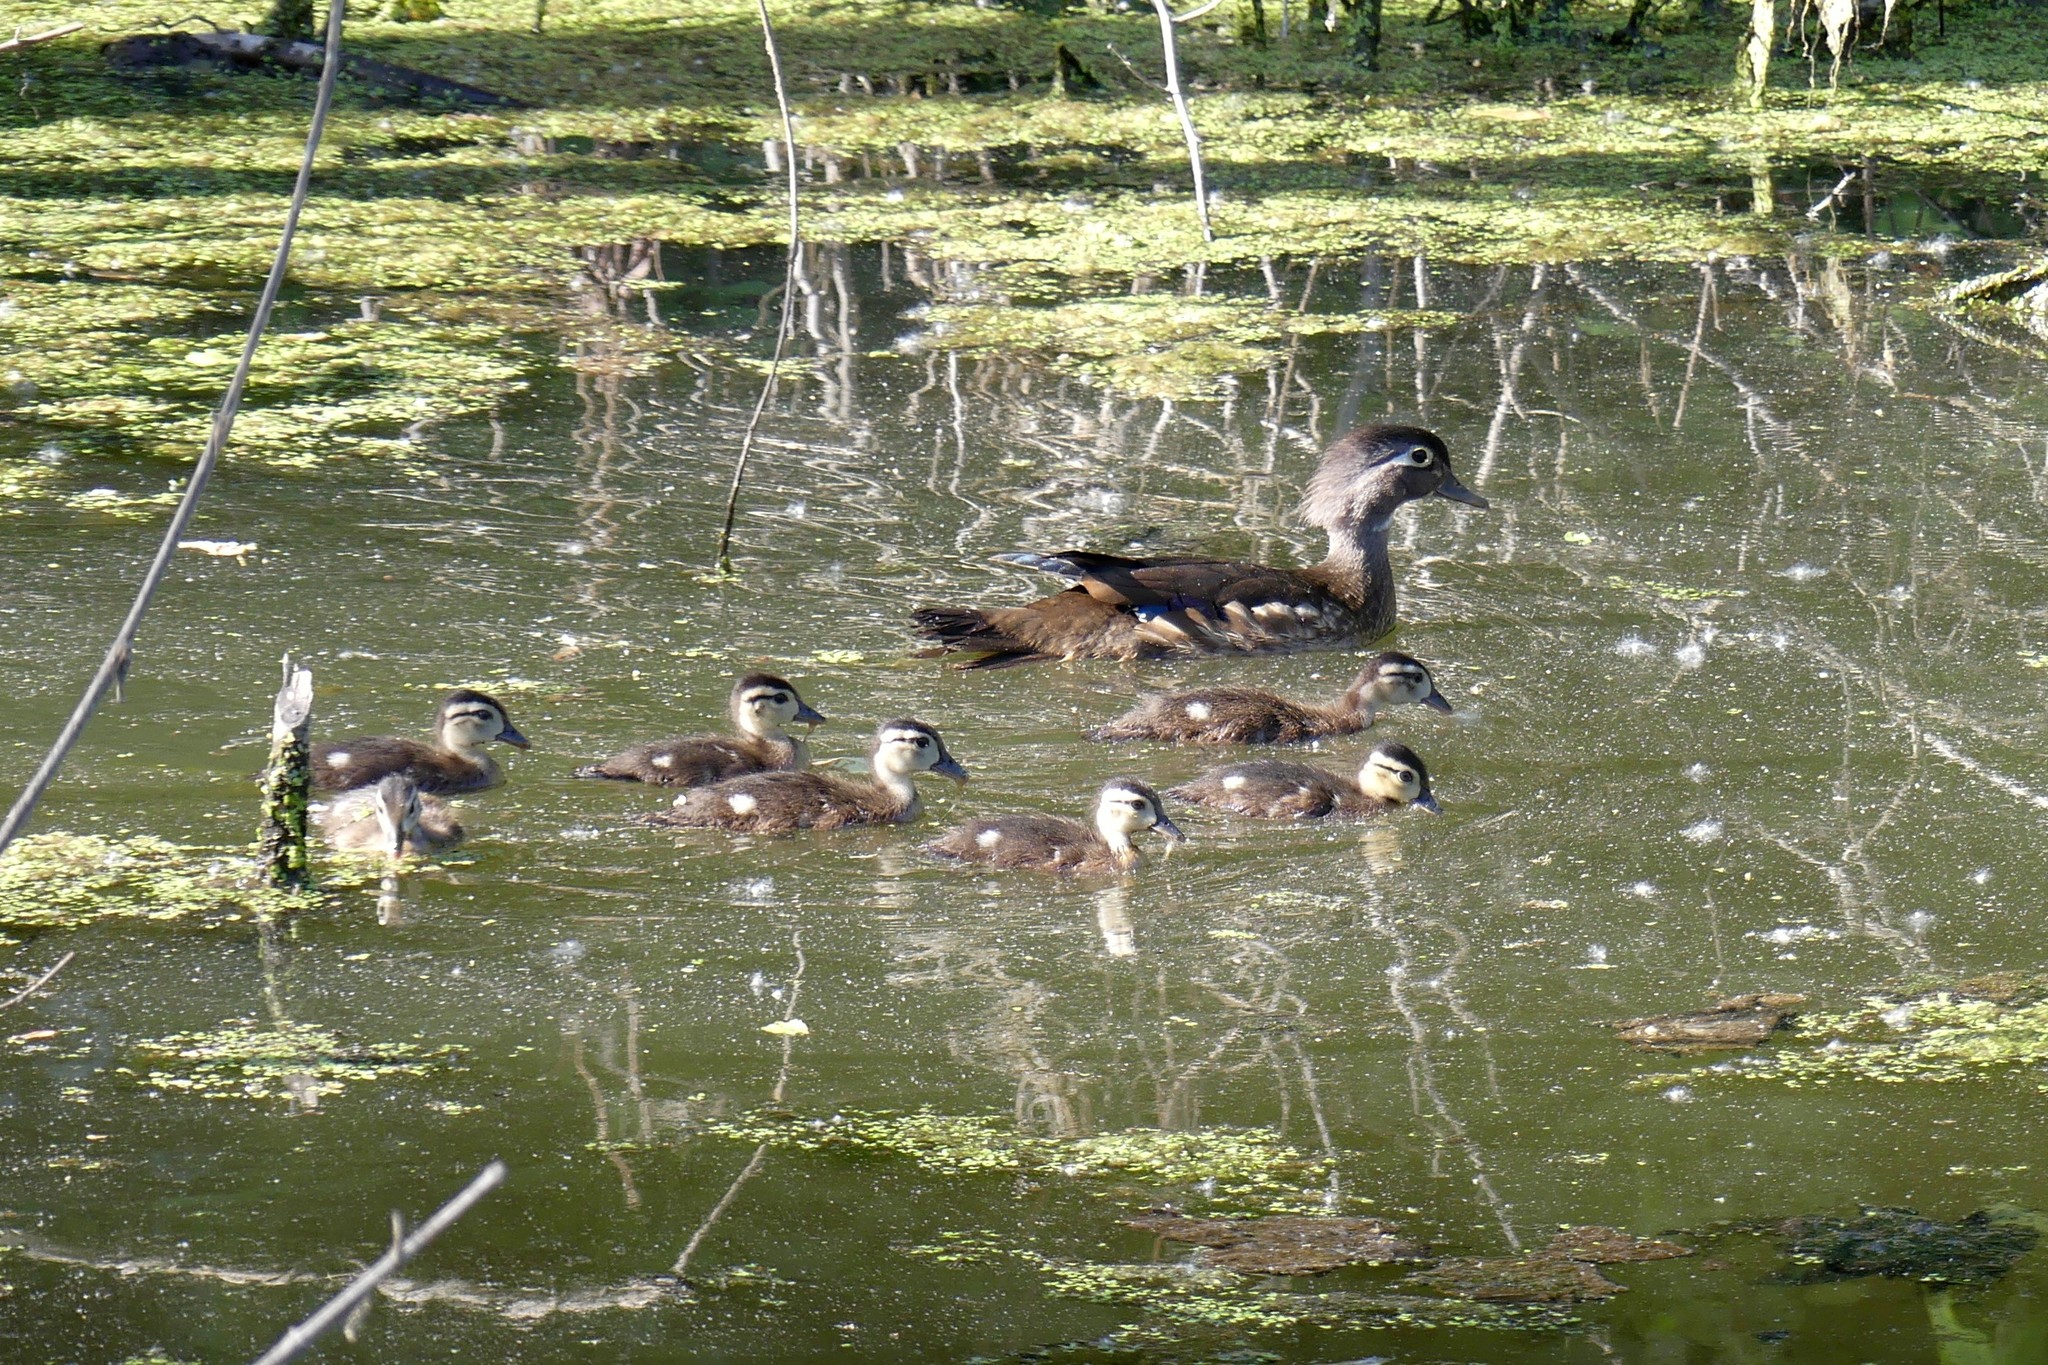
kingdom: Animalia
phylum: Chordata
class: Aves
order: Anseriformes
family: Anatidae
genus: Aix
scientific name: Aix sponsa
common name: Wood duck
